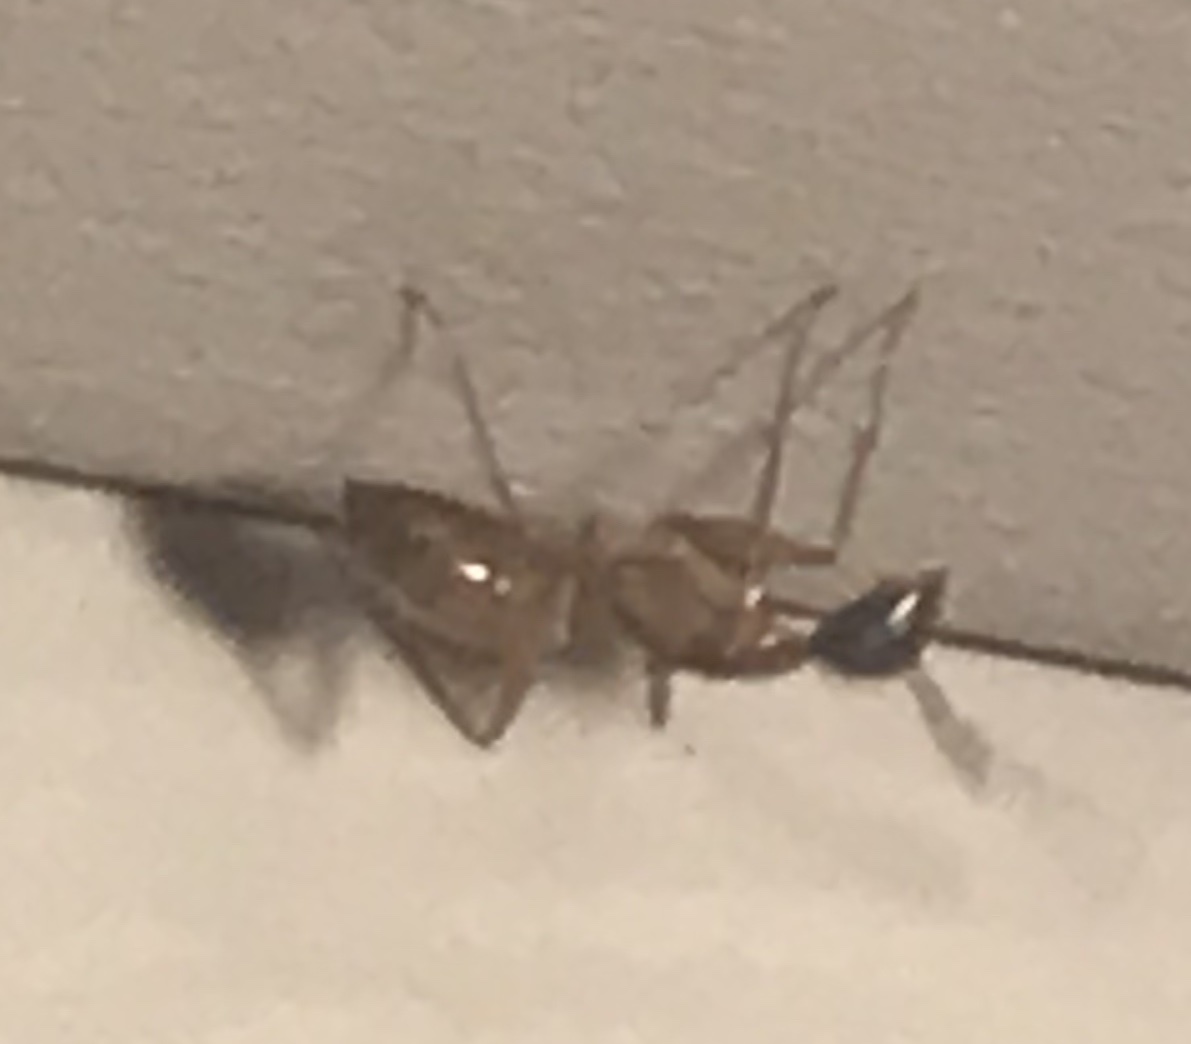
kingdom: Animalia
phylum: Arthropoda
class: Insecta
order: Hymenoptera
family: Formicidae
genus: Camponotus
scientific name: Camponotus americanus
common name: American carpenter ant
